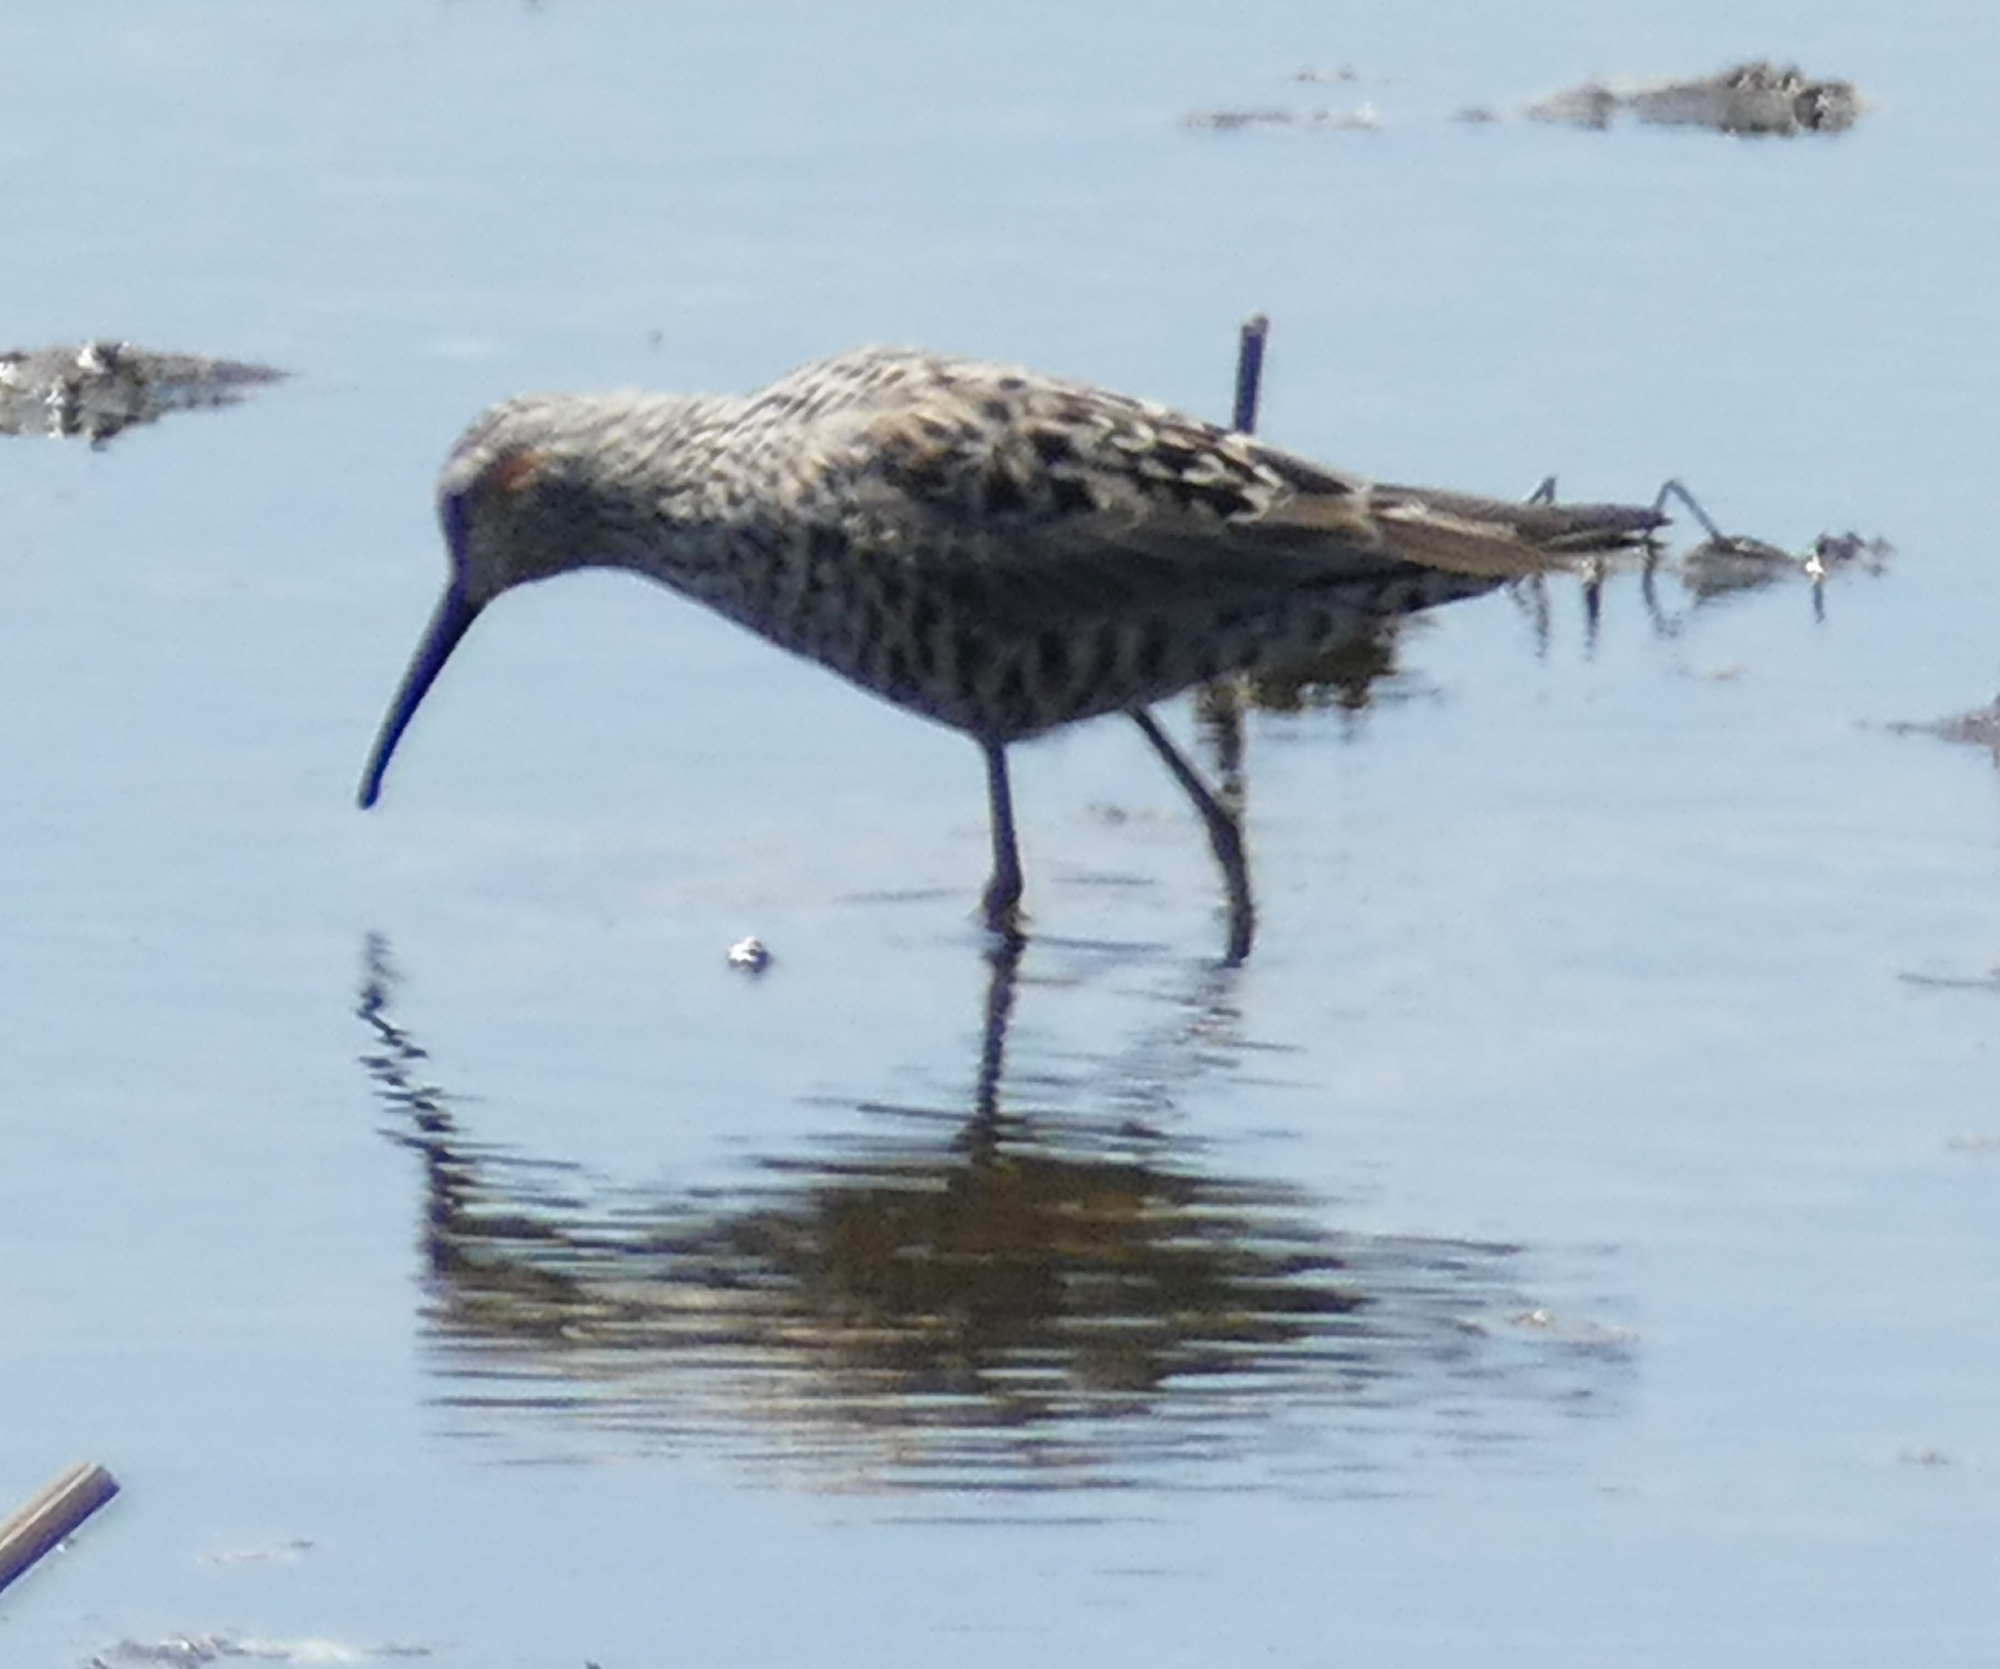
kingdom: Animalia
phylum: Chordata
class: Aves
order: Charadriiformes
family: Scolopacidae
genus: Calidris
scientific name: Calidris himantopus
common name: Stilt sandpiper
